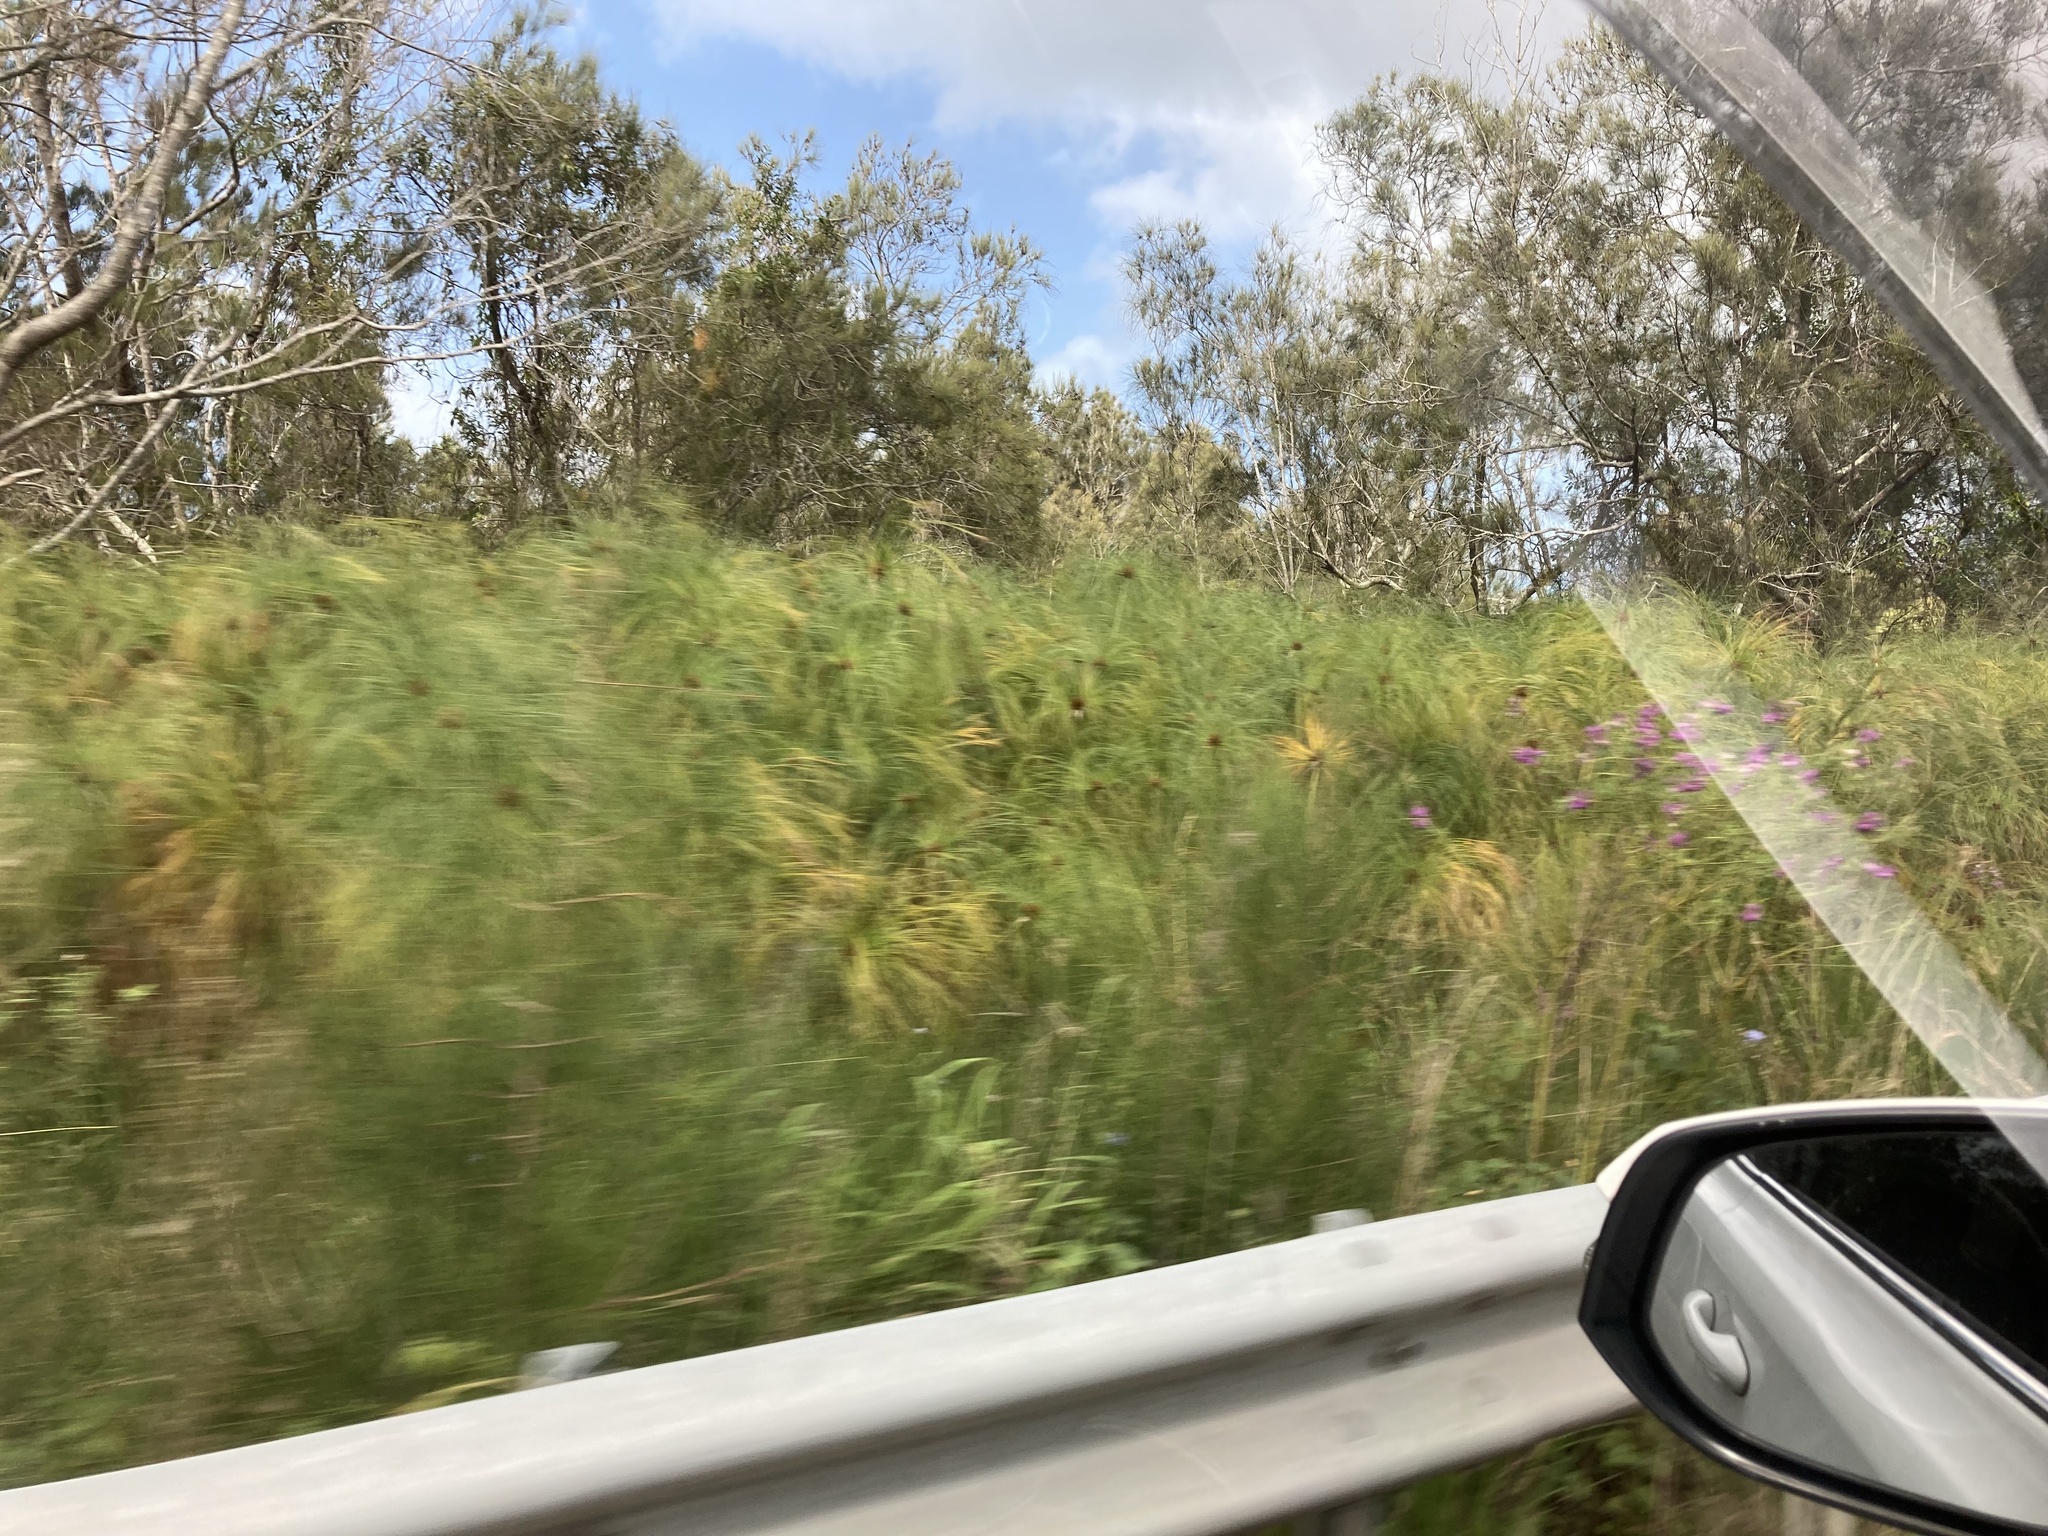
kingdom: Plantae
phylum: Tracheophyta
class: Liliopsida
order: Poales
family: Cyperaceae
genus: Cyperus
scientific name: Cyperus papyrus
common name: Papyrus
